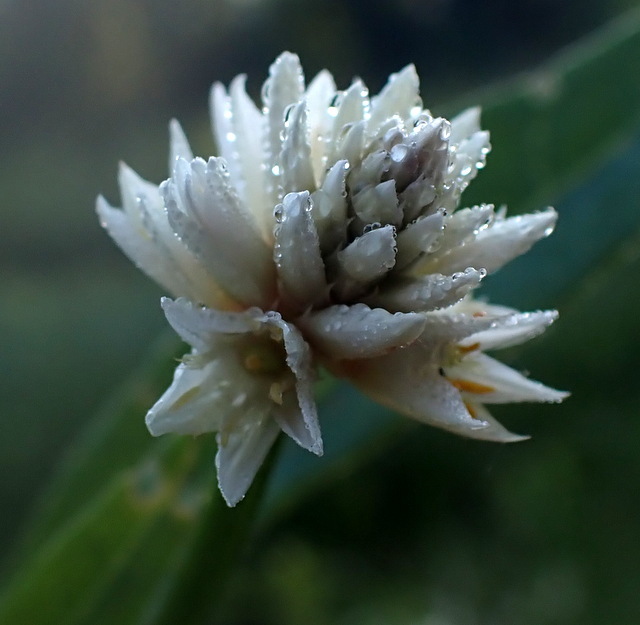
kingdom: Plantae
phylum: Tracheophyta
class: Magnoliopsida
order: Caryophyllales
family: Amaranthaceae
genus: Alternanthera
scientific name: Alternanthera philoxeroides
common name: Alligatorweed
